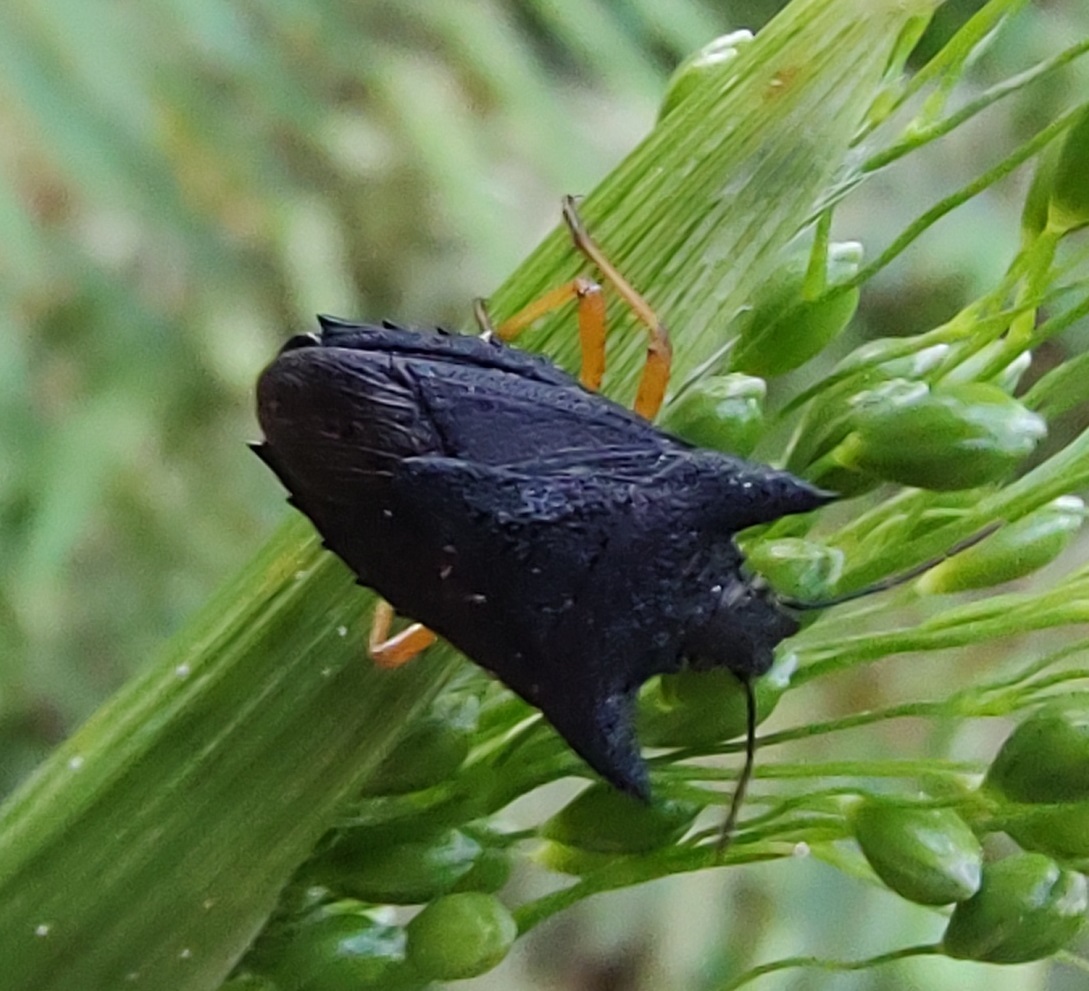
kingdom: Animalia
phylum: Arthropoda
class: Insecta
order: Hemiptera
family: Pentatomidae
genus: Caonabo
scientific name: Caonabo pseudoscylax
